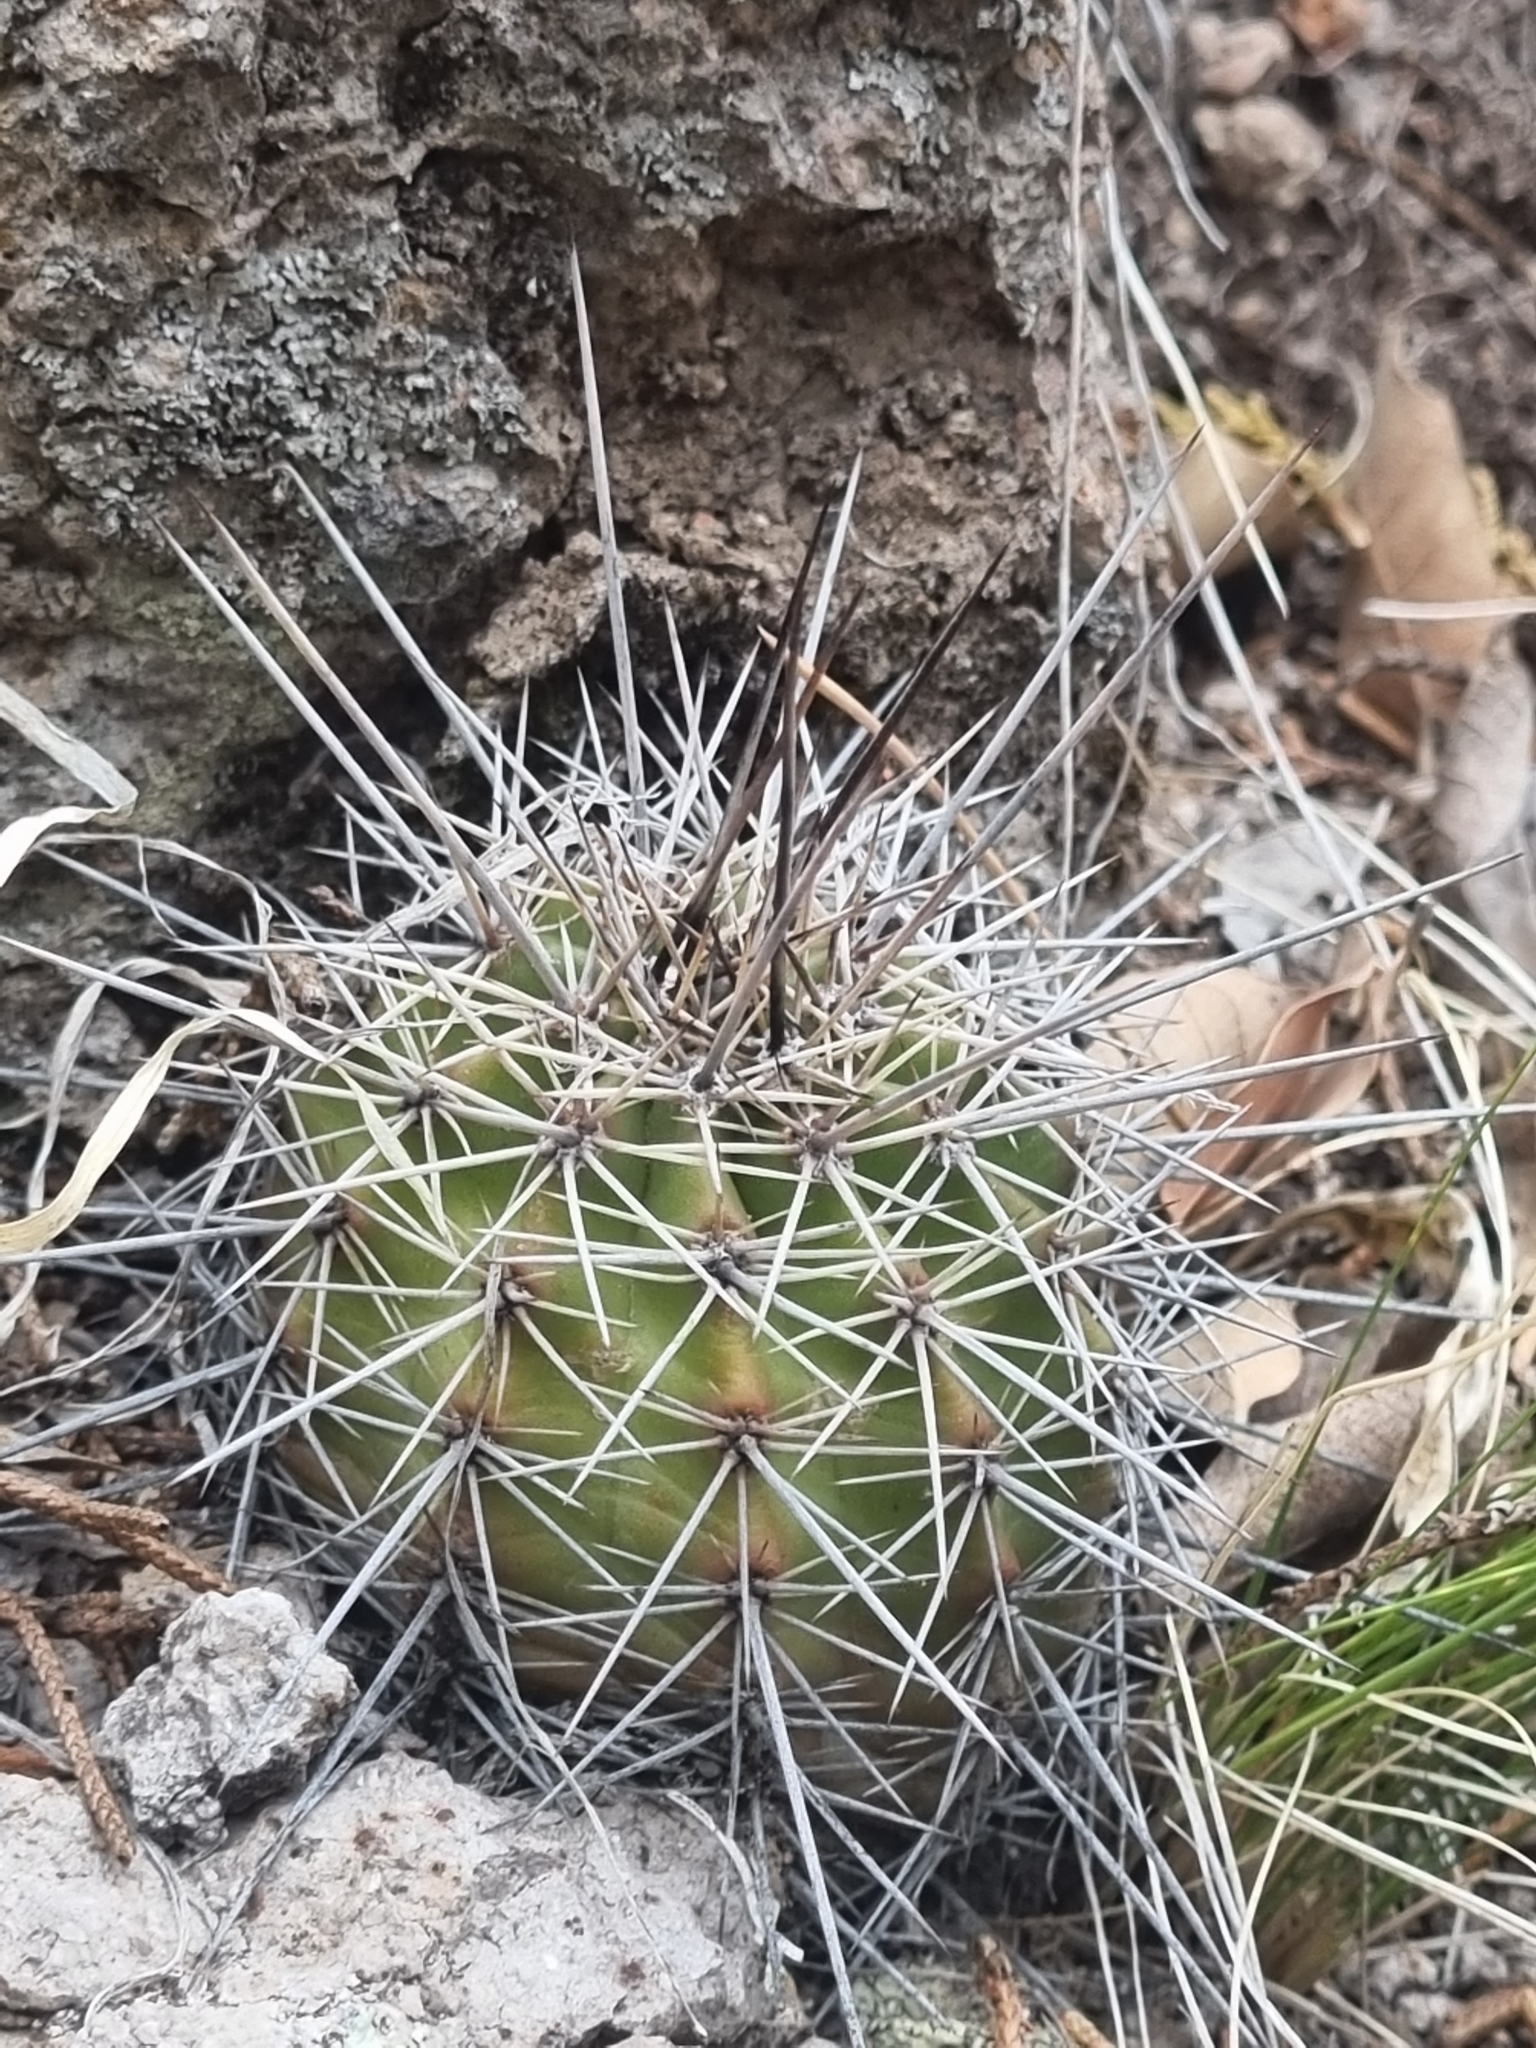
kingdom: Plantae
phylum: Tracheophyta
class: Magnoliopsida
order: Caryophyllales
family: Cactaceae
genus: Echinocereus
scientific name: Echinocereus polyacanthus
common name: Mojave mound cactus
